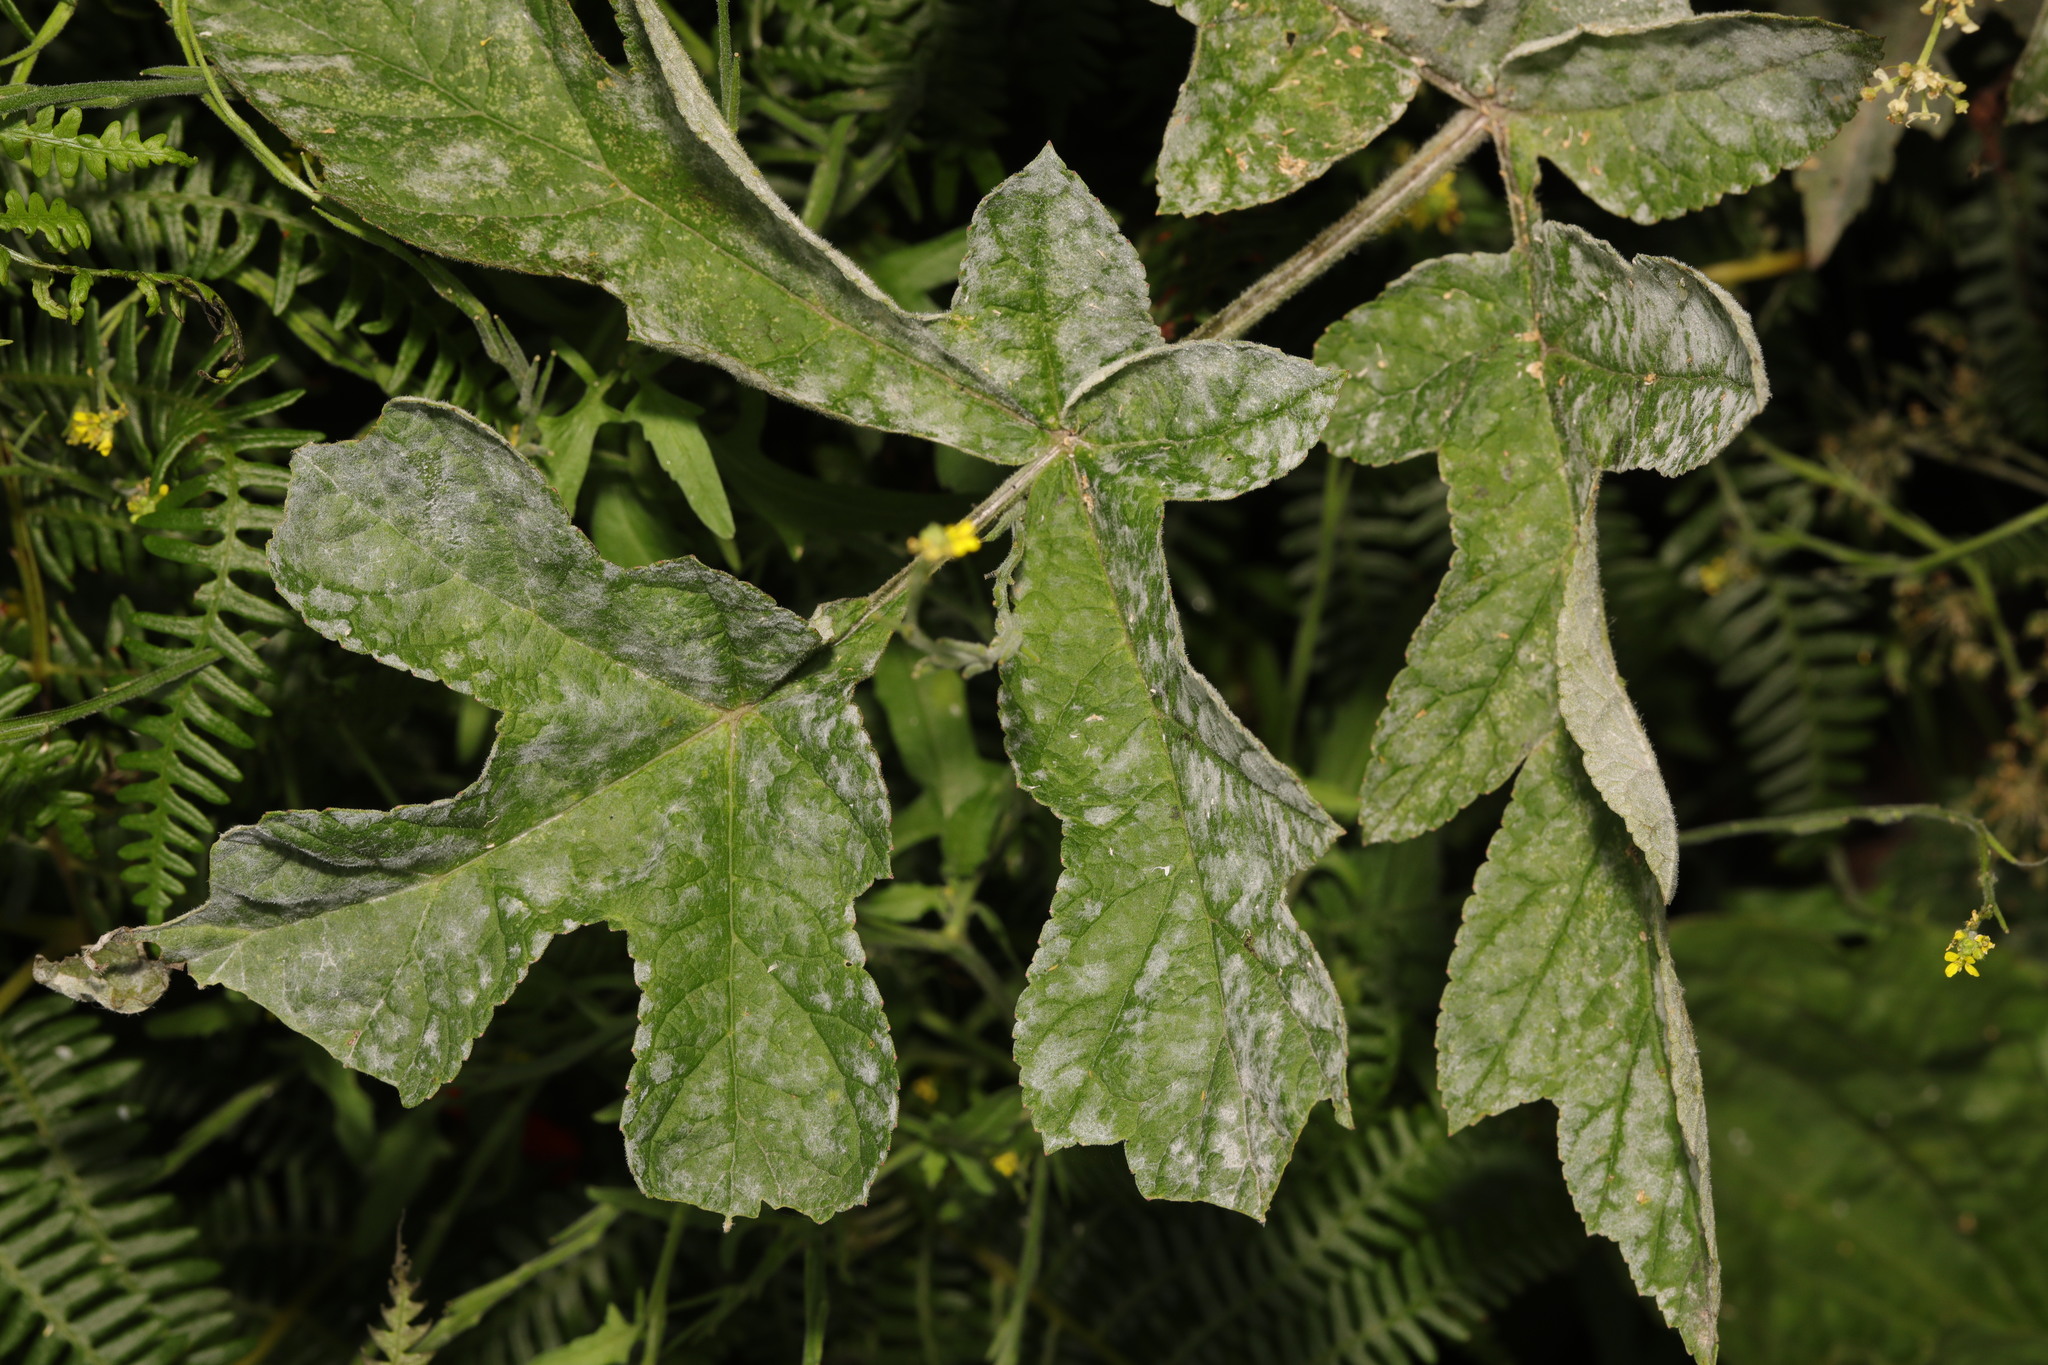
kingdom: Fungi
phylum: Ascomycota
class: Leotiomycetes
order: Helotiales
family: Erysiphaceae
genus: Erysiphe
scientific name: Erysiphe heraclei
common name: Umbellifer mildew
